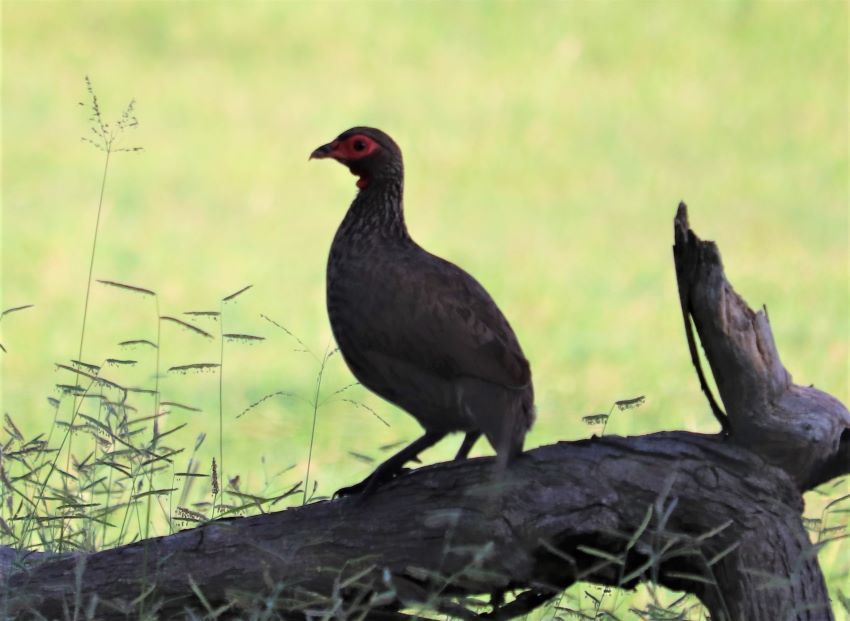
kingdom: Animalia
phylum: Chordata
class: Aves
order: Galliformes
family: Phasianidae
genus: Pternistis
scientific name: Pternistis swainsonii
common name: Swainson's spurfowl
